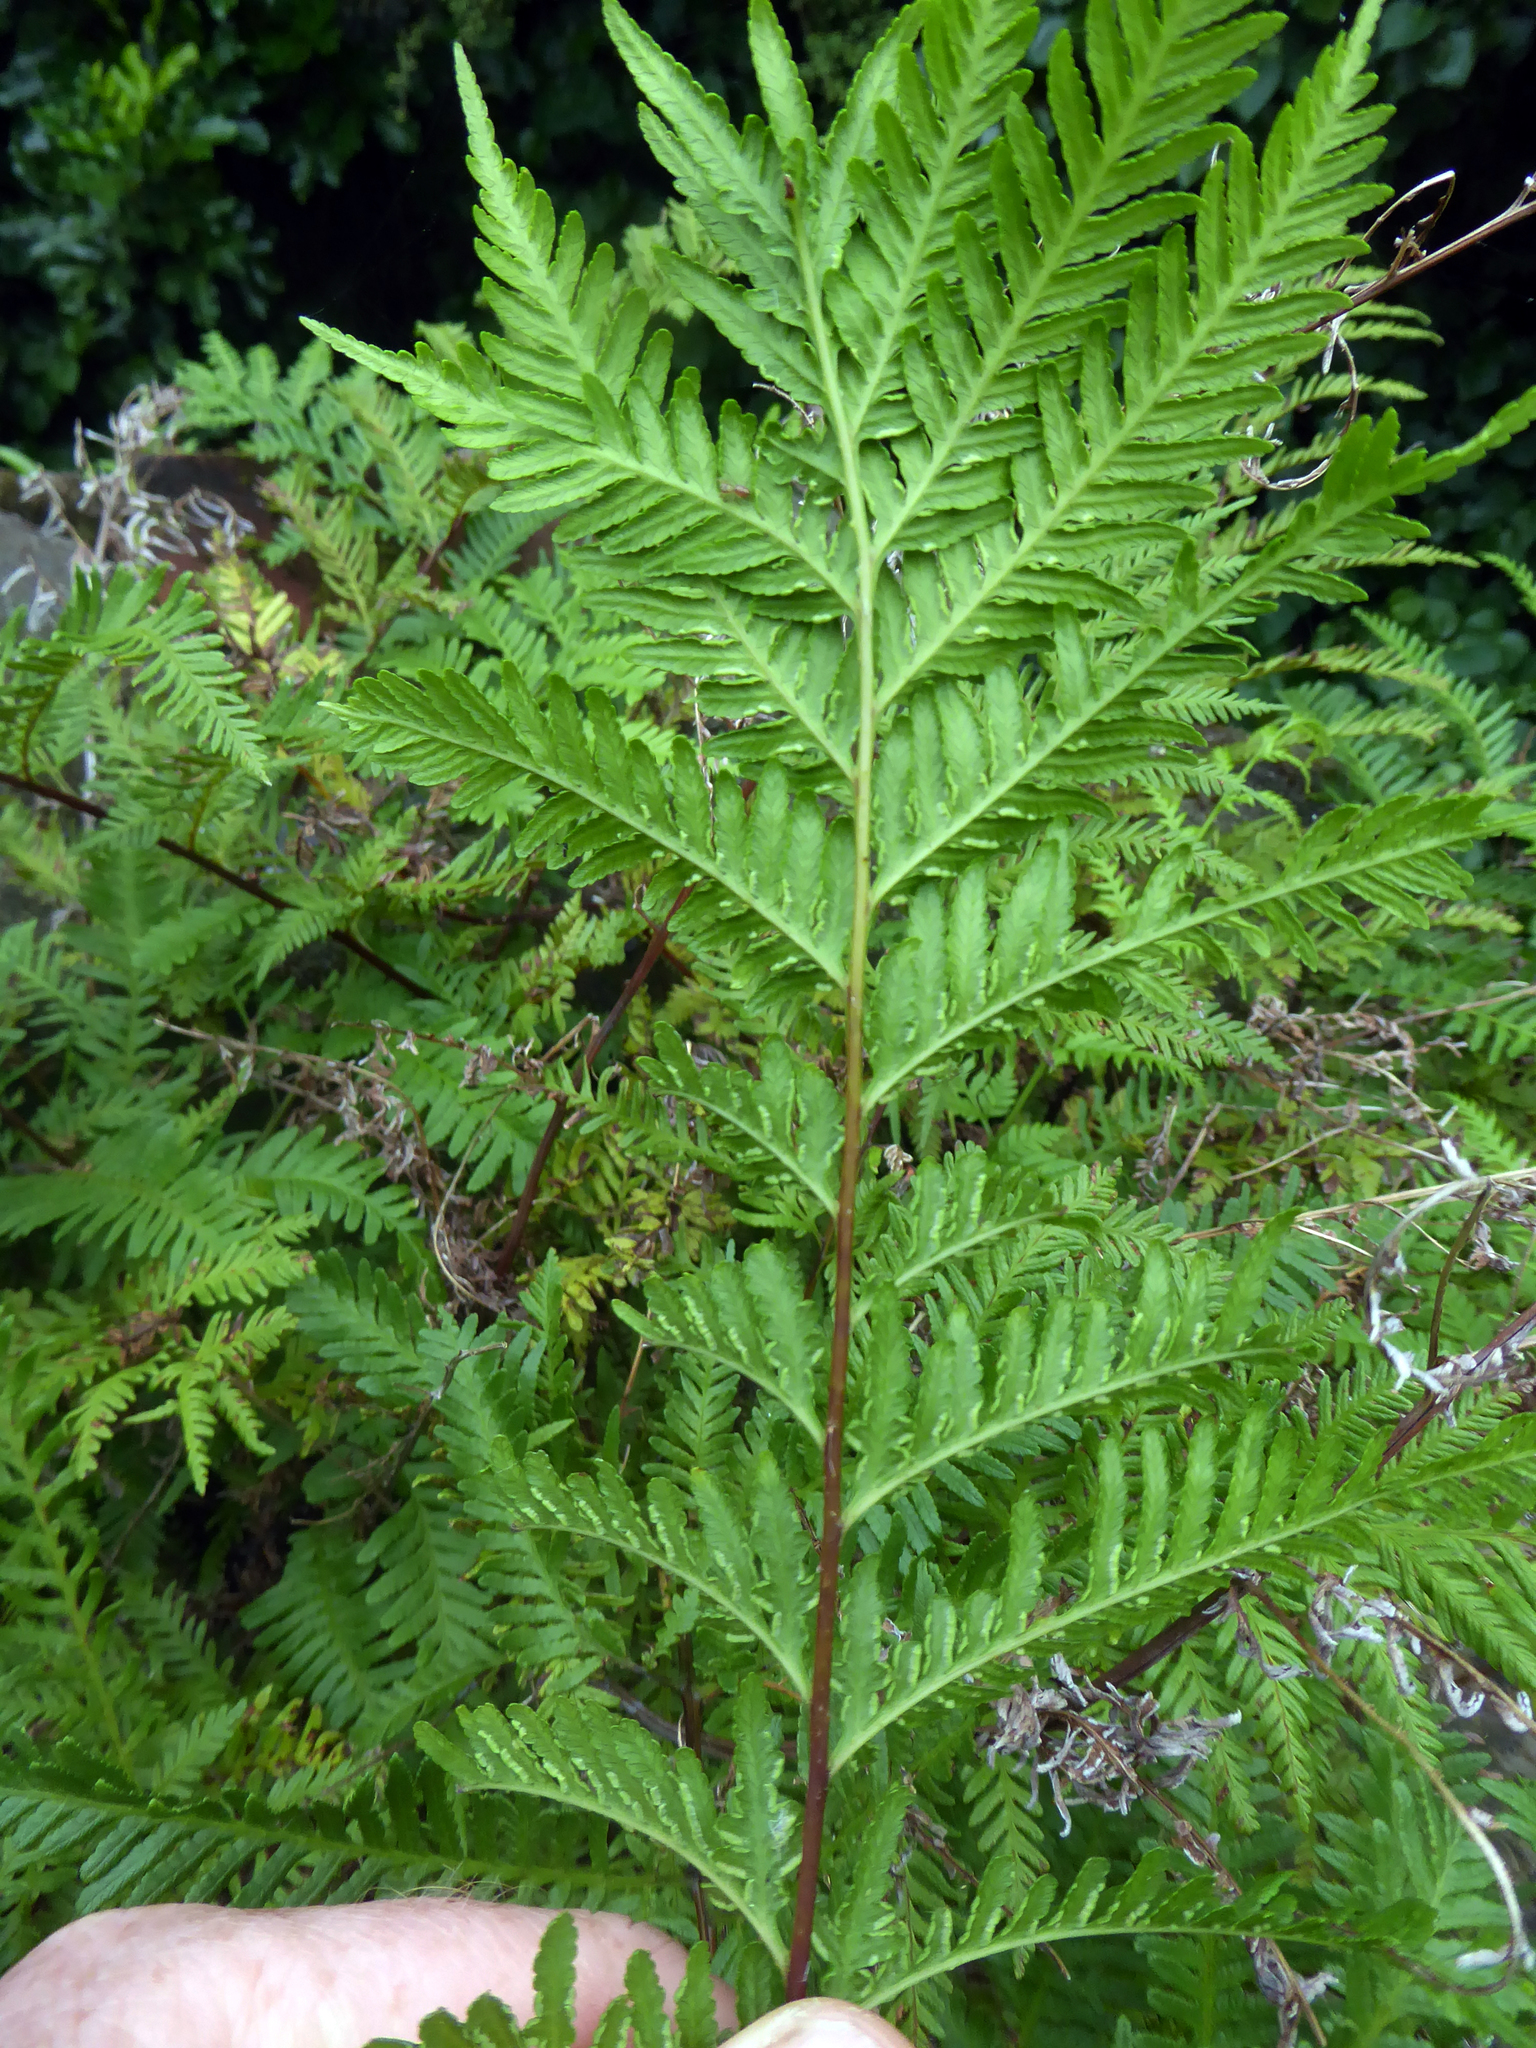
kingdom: Plantae
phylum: Tracheophyta
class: Polypodiopsida
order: Polypodiales
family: Pteridaceae
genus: Pteris
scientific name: Pteris tremula
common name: Australian brake
